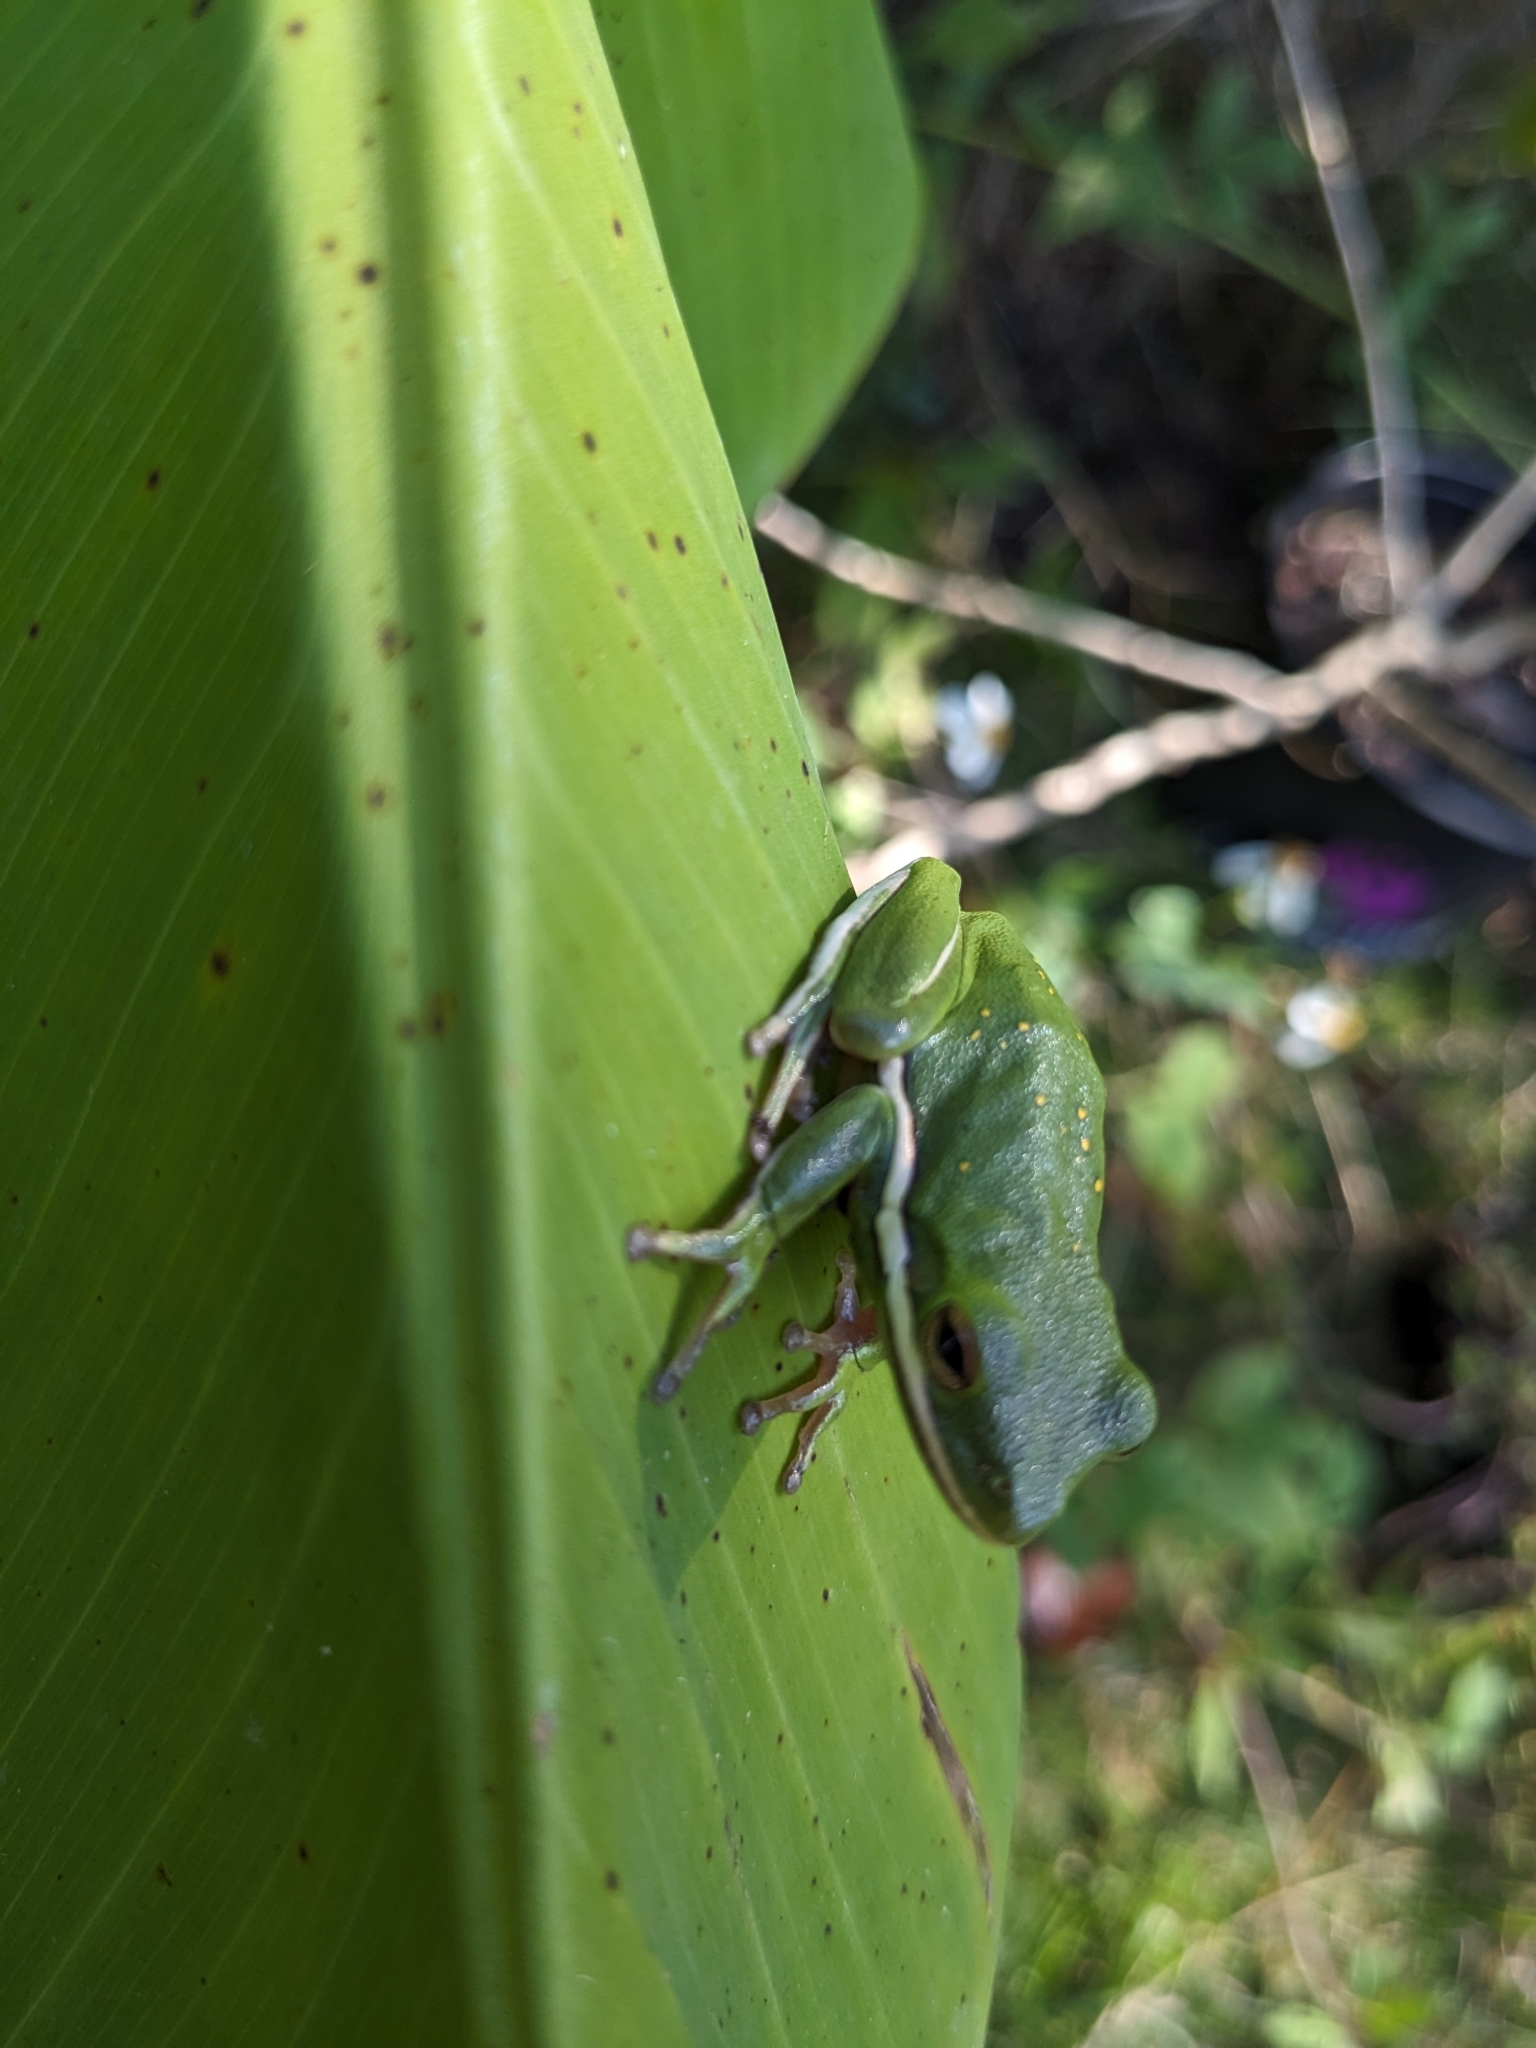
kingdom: Animalia
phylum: Chordata
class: Amphibia
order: Anura
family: Hylidae
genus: Dryophytes
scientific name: Dryophytes cinereus
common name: Green treefrog
